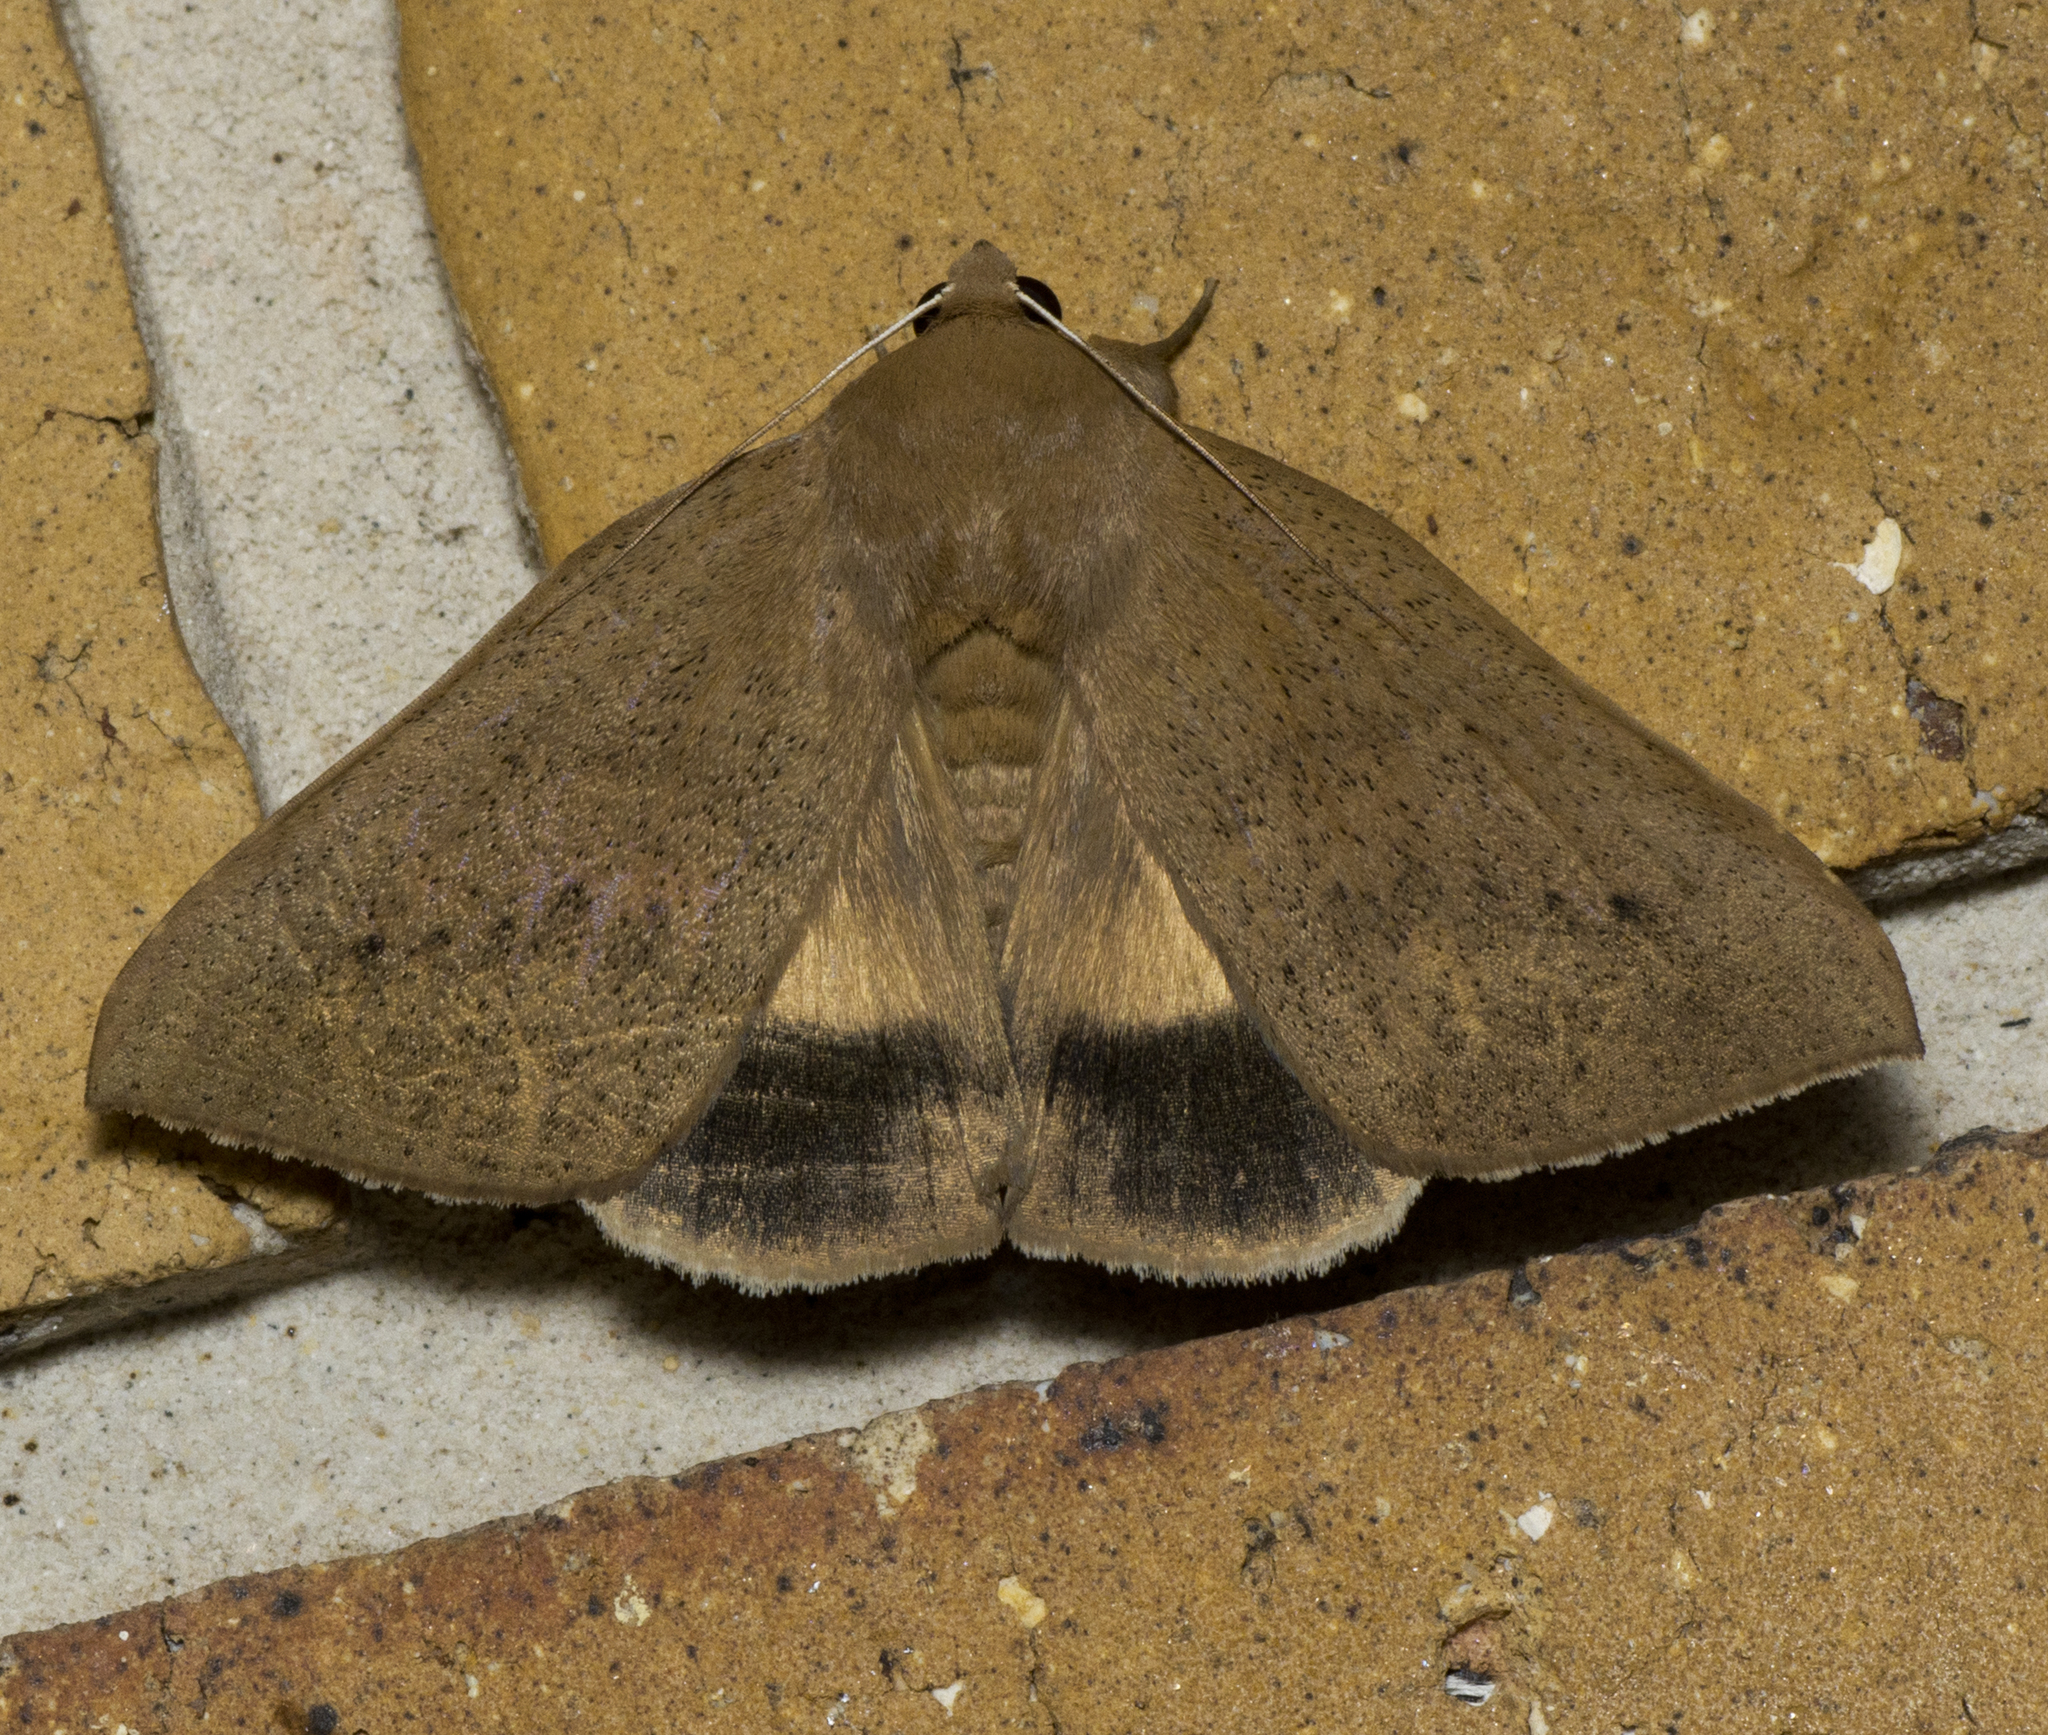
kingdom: Animalia
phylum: Arthropoda
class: Insecta
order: Lepidoptera
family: Erebidae
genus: Ophisma
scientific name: Ophisma gravata
